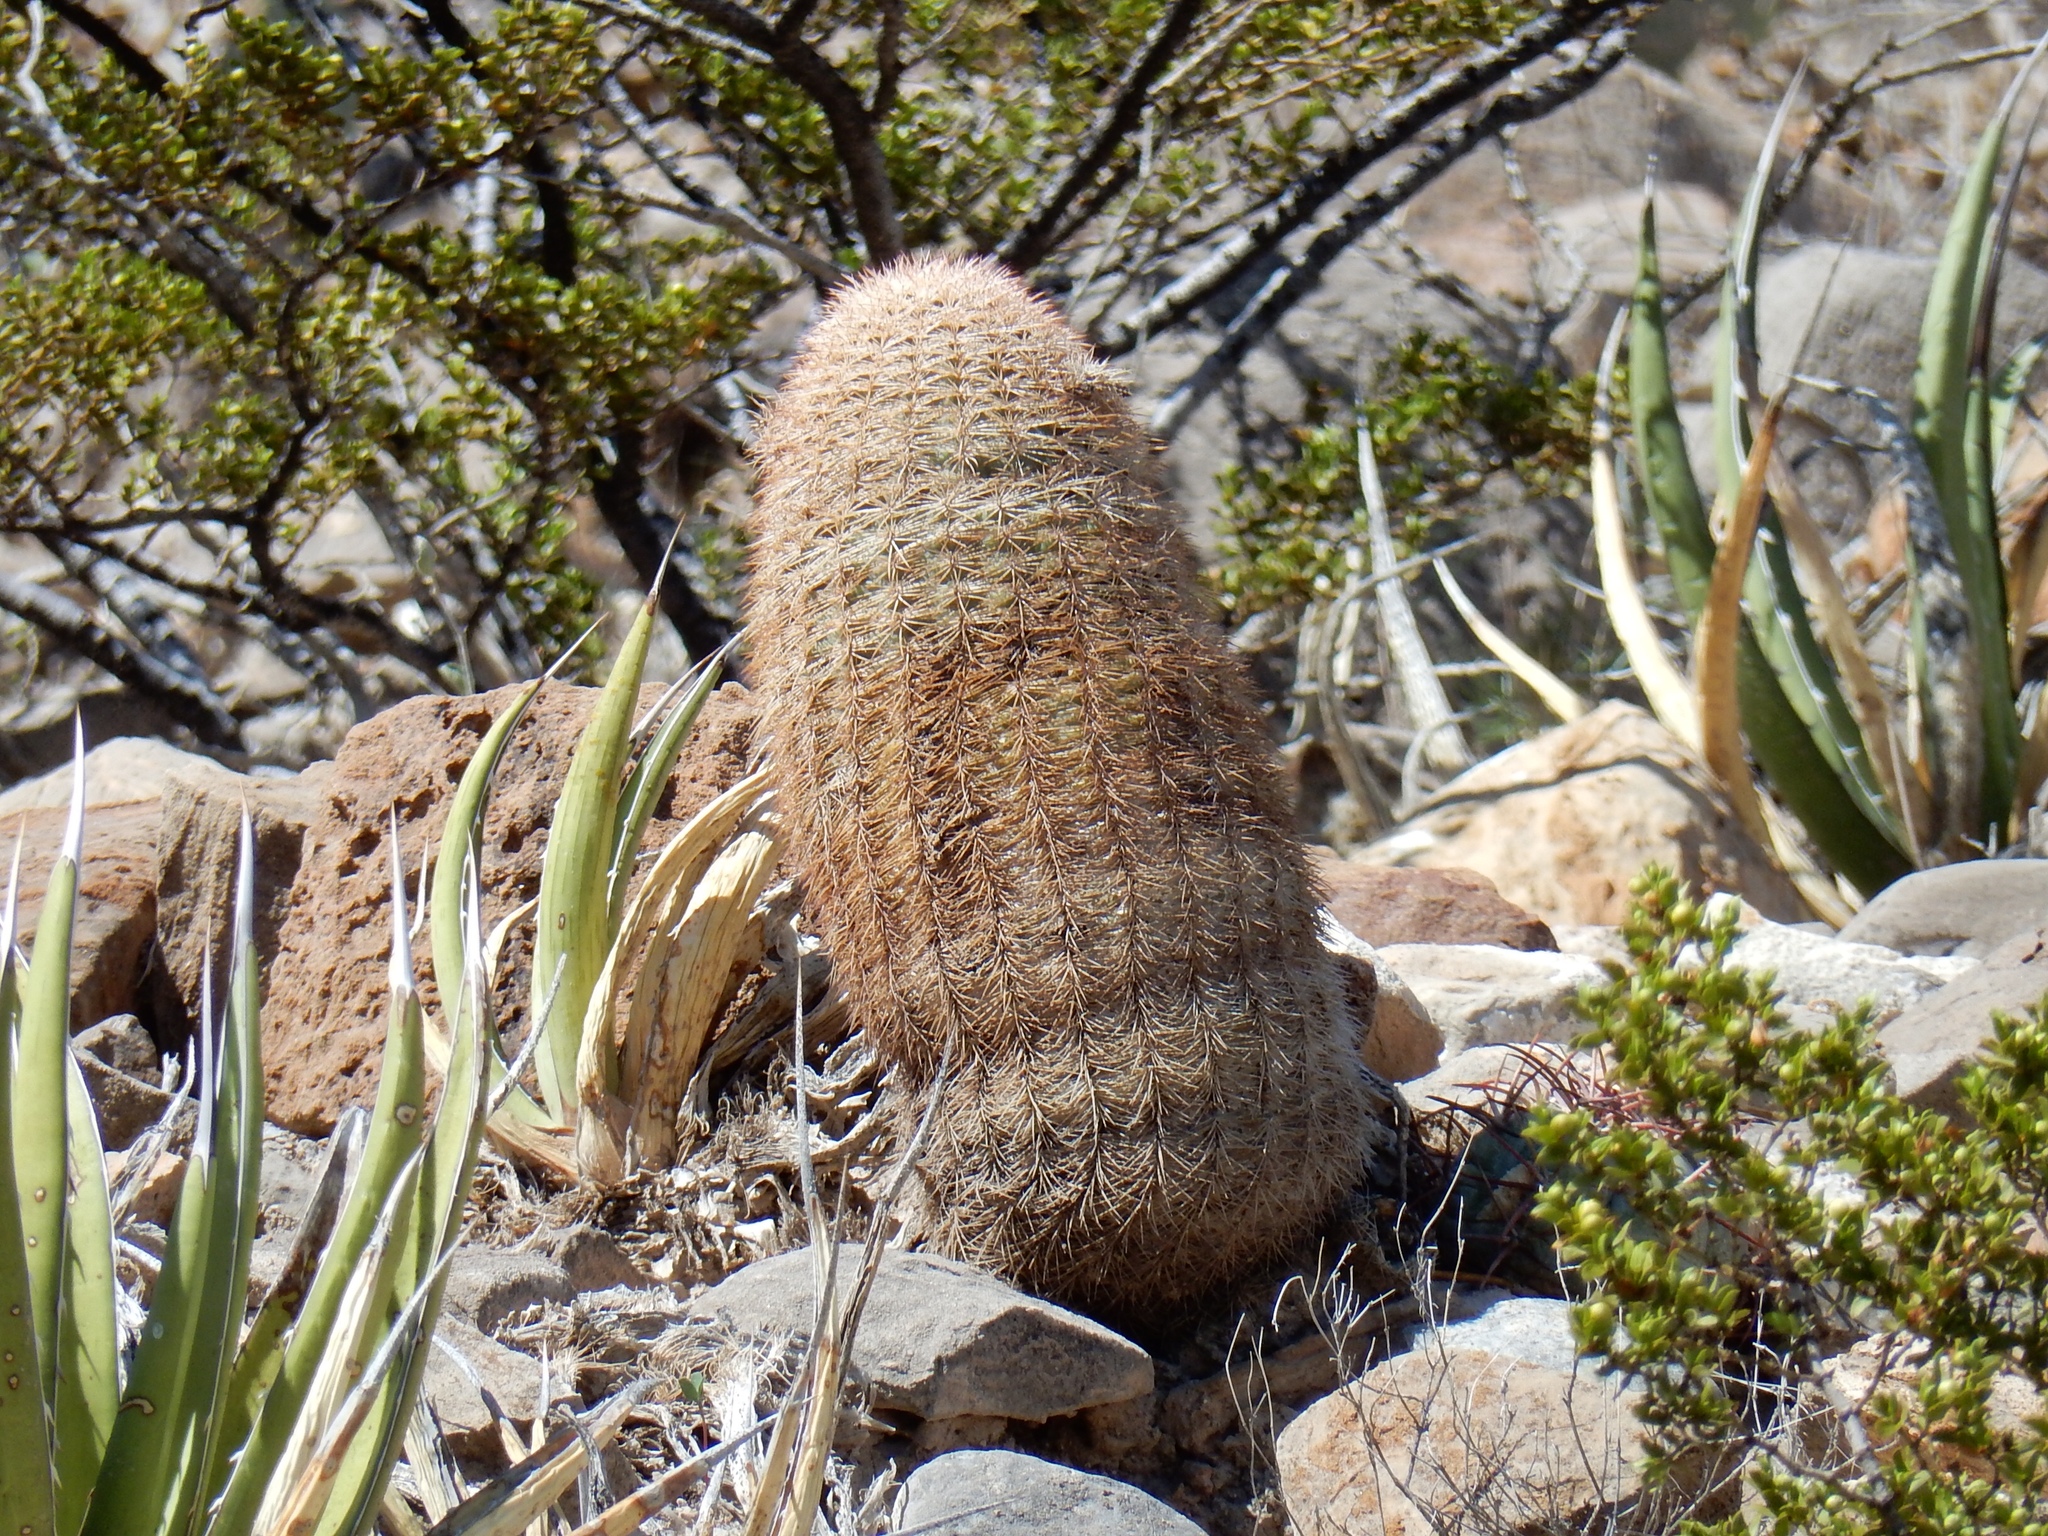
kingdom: Plantae
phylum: Tracheophyta
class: Magnoliopsida
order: Caryophyllales
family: Cactaceae
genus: Echinocereus
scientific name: Echinocereus dasyacanthus
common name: Spiny hedgehog cactus
